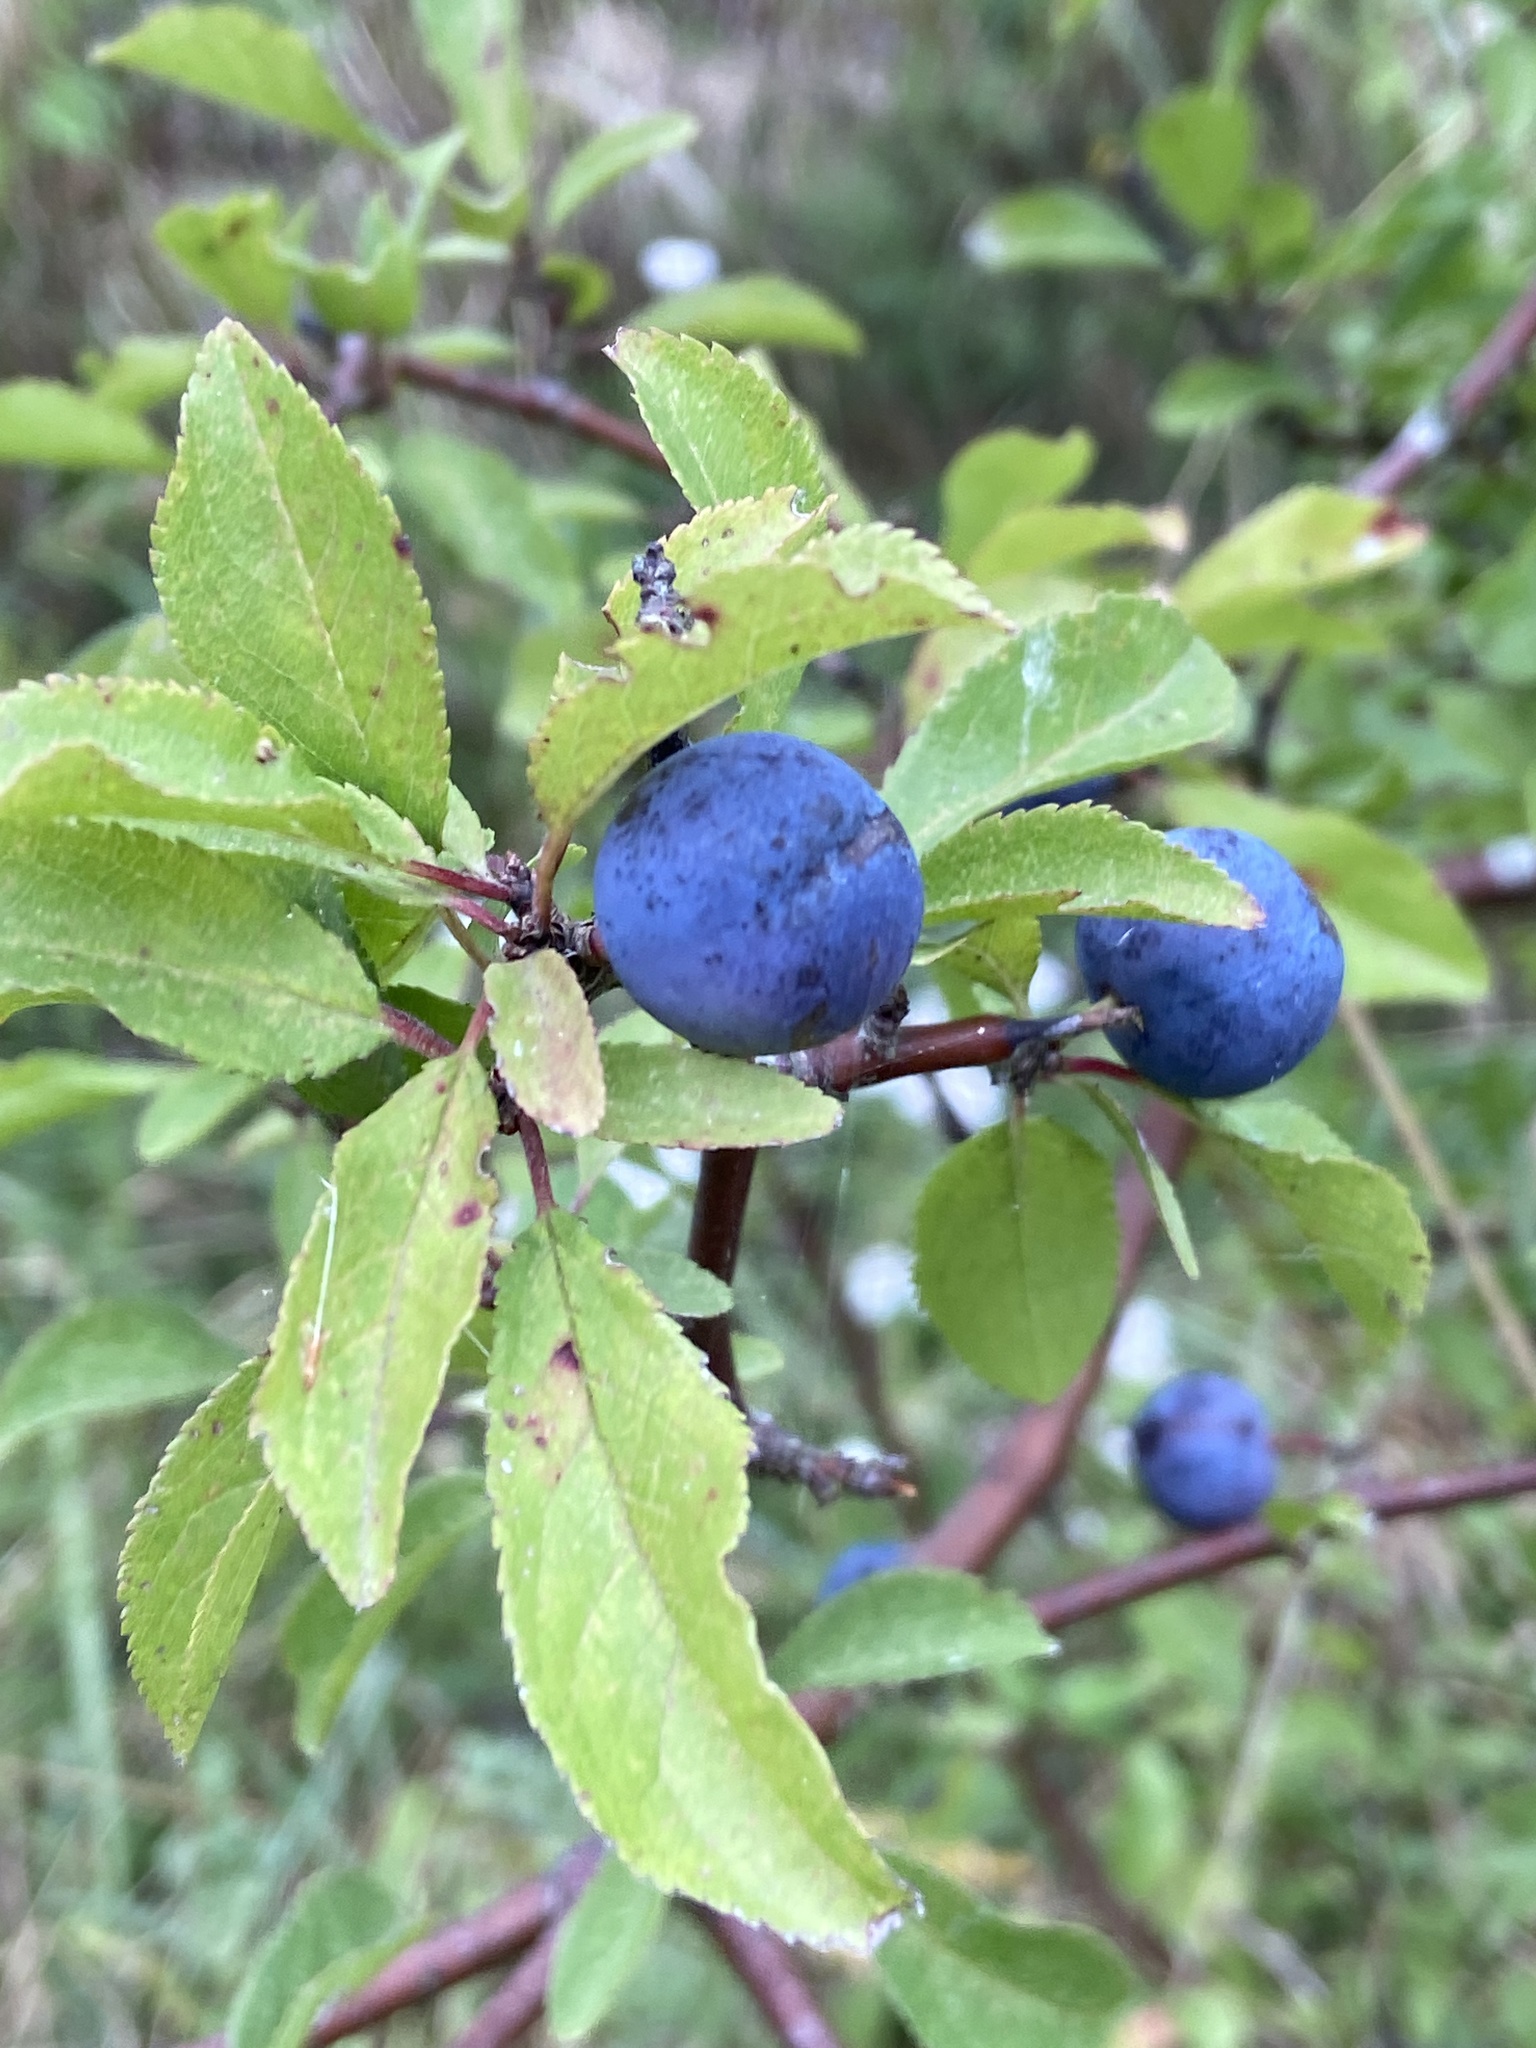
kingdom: Plantae
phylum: Tracheophyta
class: Magnoliopsida
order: Rosales
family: Rosaceae
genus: Prunus
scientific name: Prunus spinosa
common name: Blackthorn
